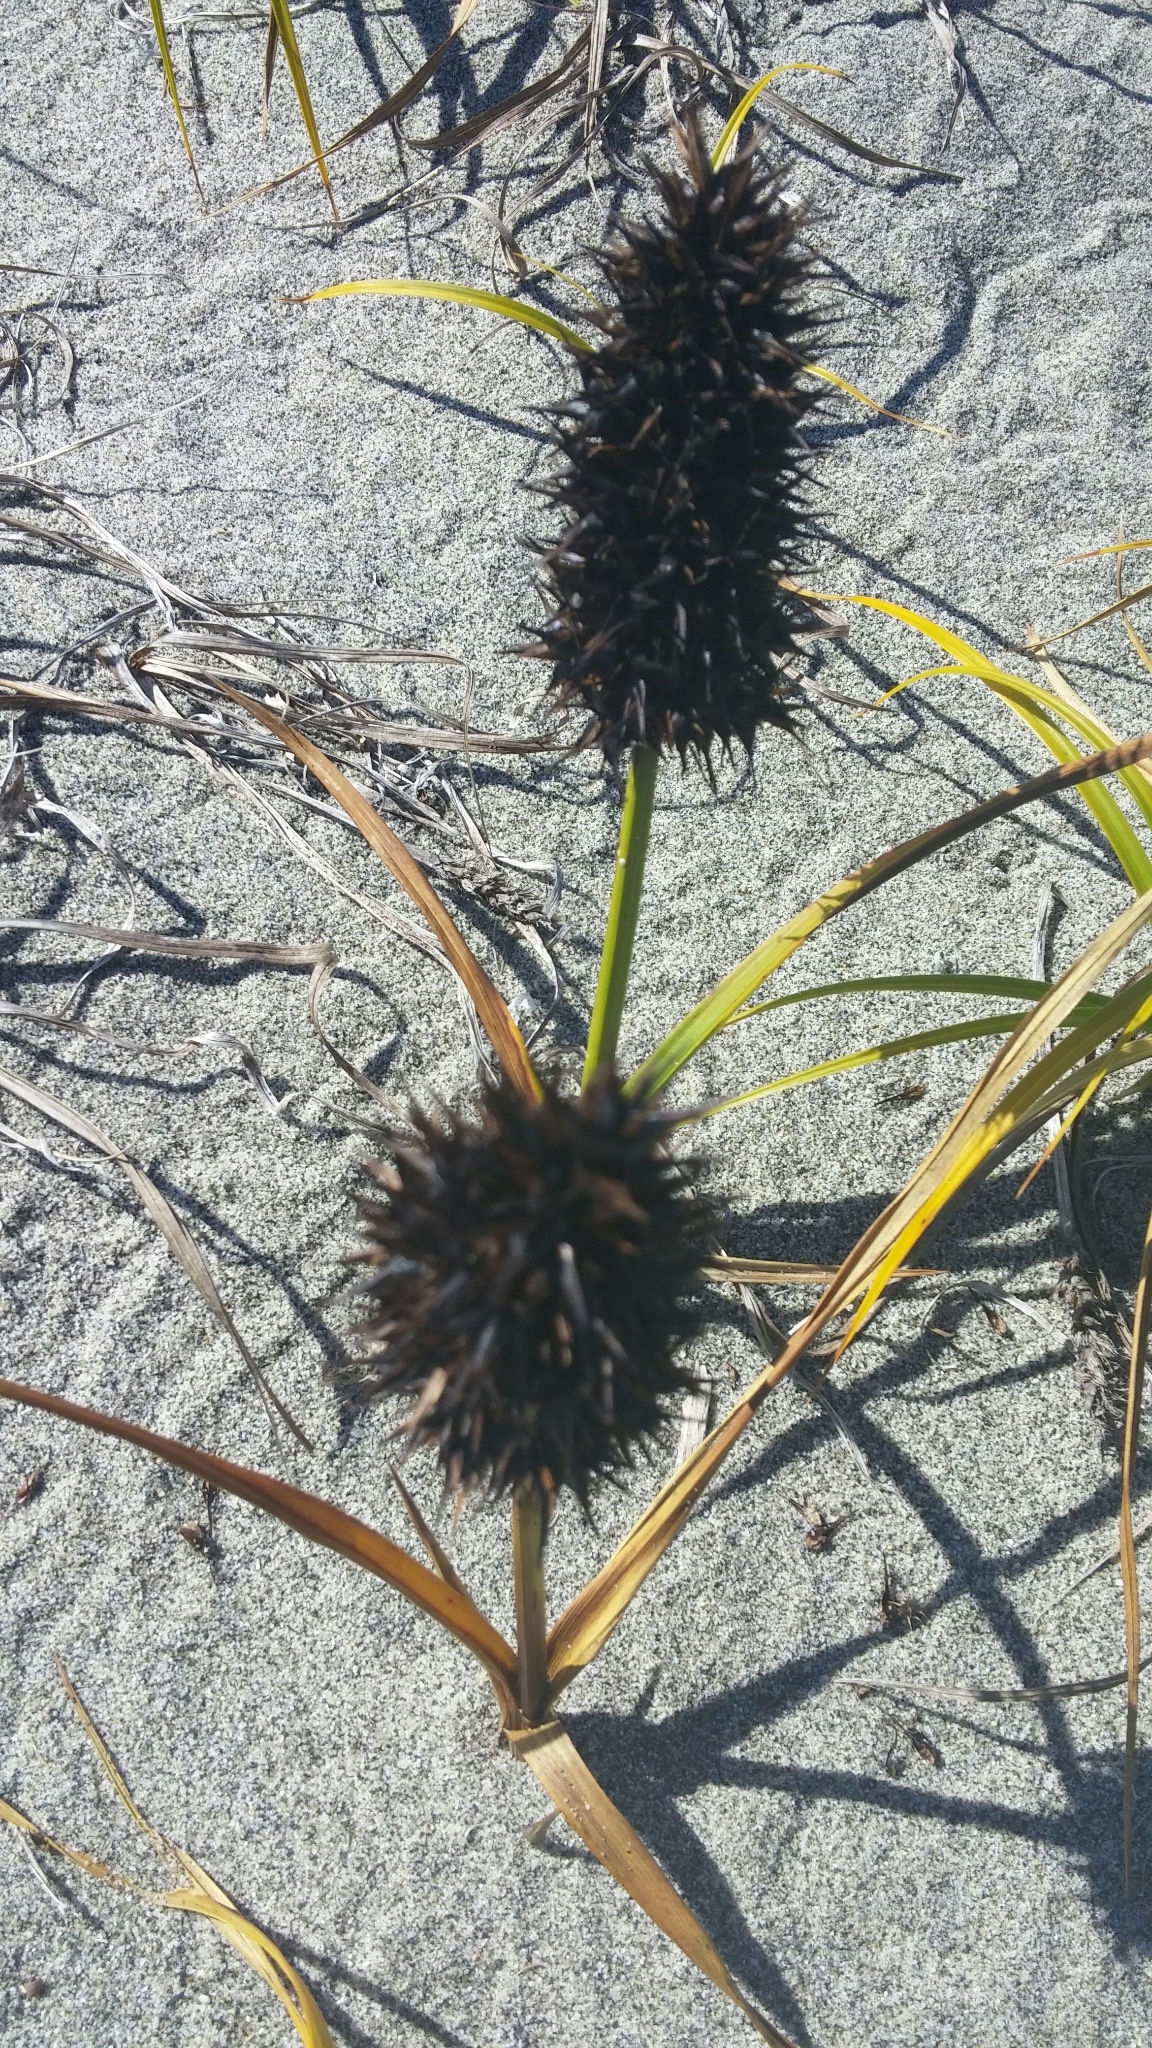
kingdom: Plantae
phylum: Tracheophyta
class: Liliopsida
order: Poales
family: Cyperaceae
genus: Carex
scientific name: Carex macrocephala
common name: Large-head sedge
